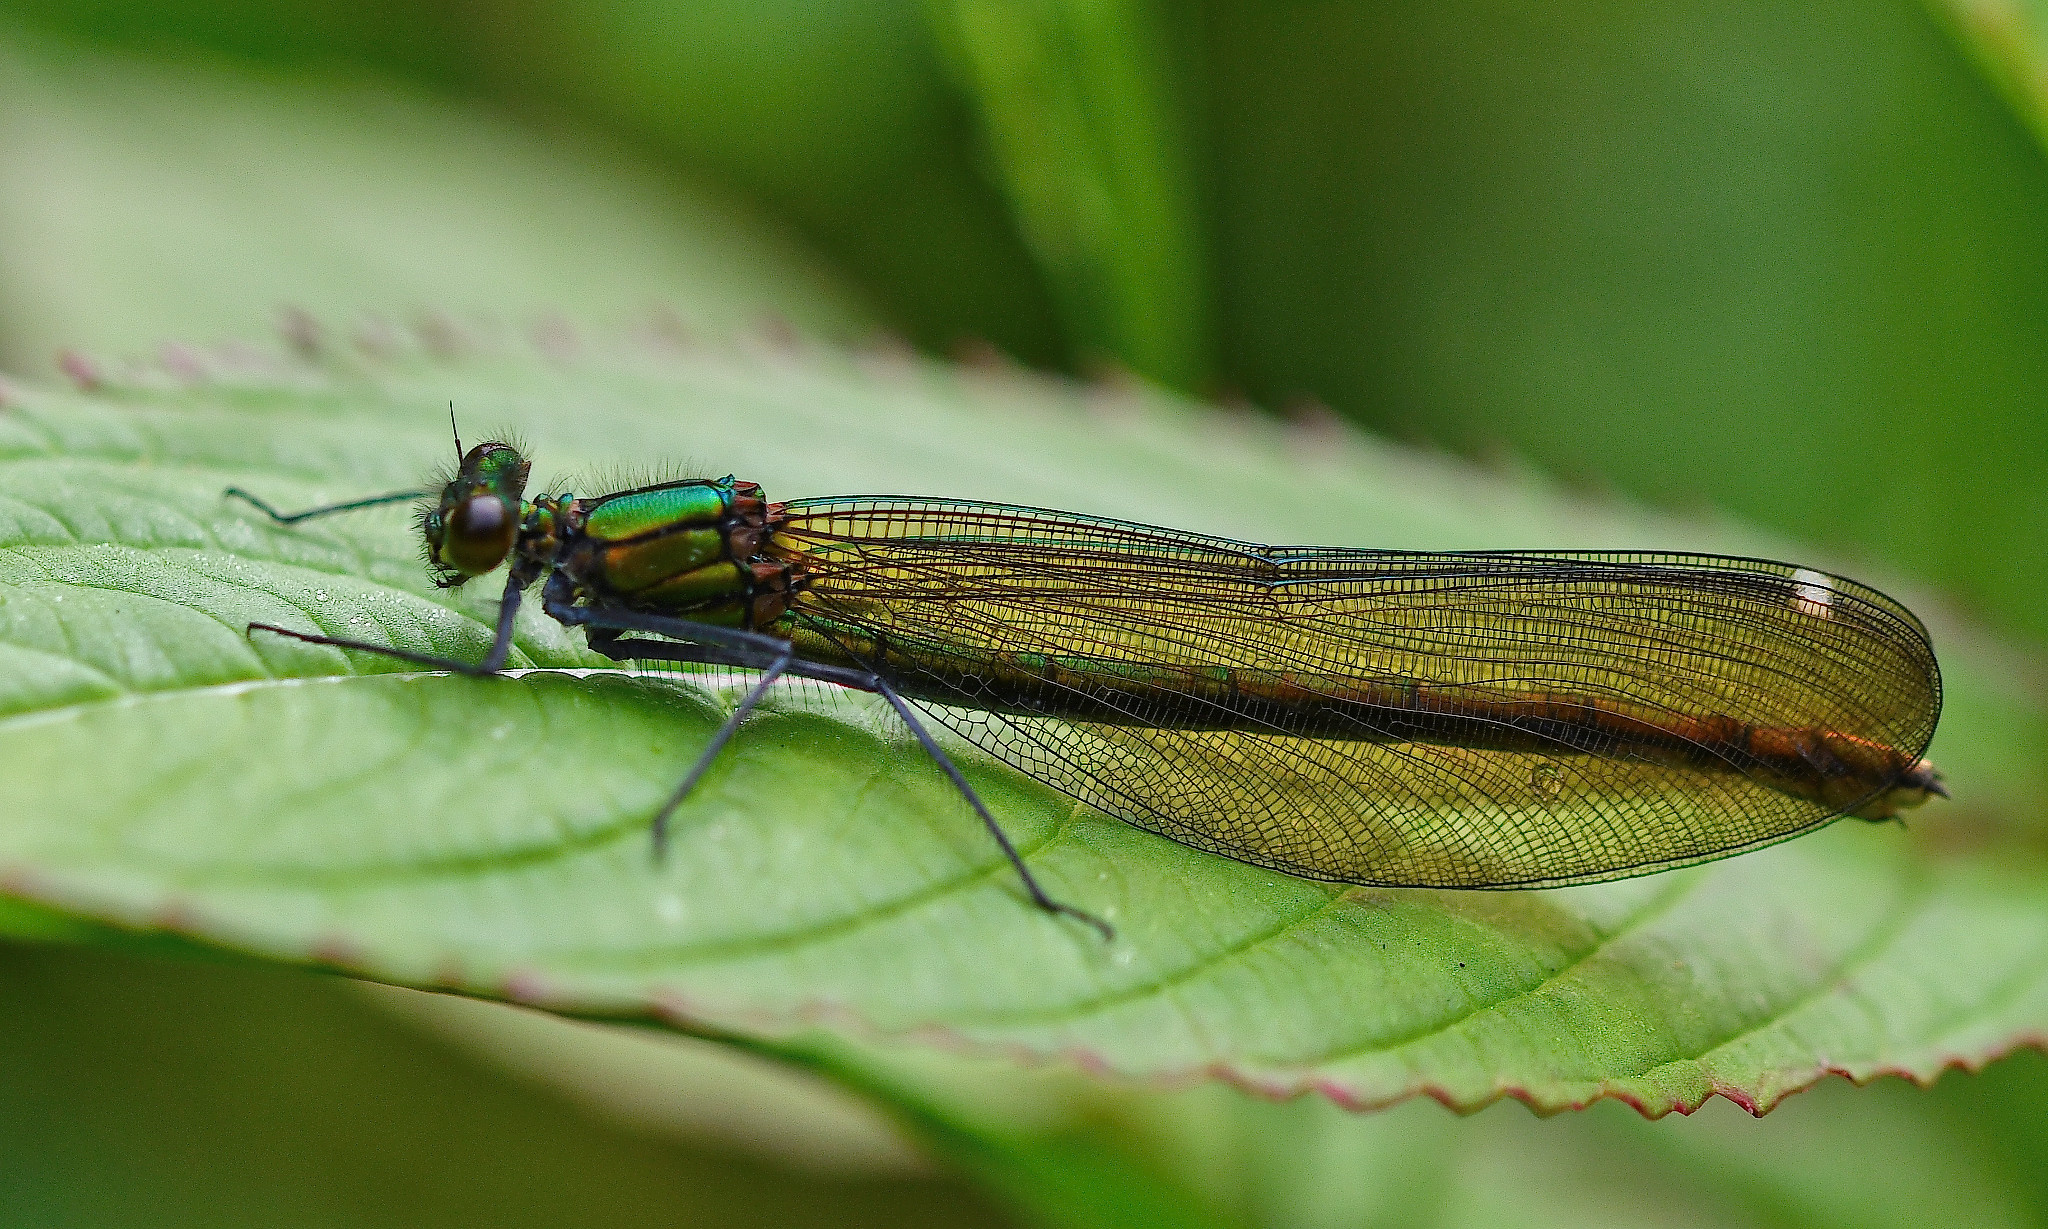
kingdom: Animalia
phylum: Arthropoda
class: Insecta
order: Odonata
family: Calopterygidae
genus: Calopteryx
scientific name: Calopteryx virgo
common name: Beautiful demoiselle
